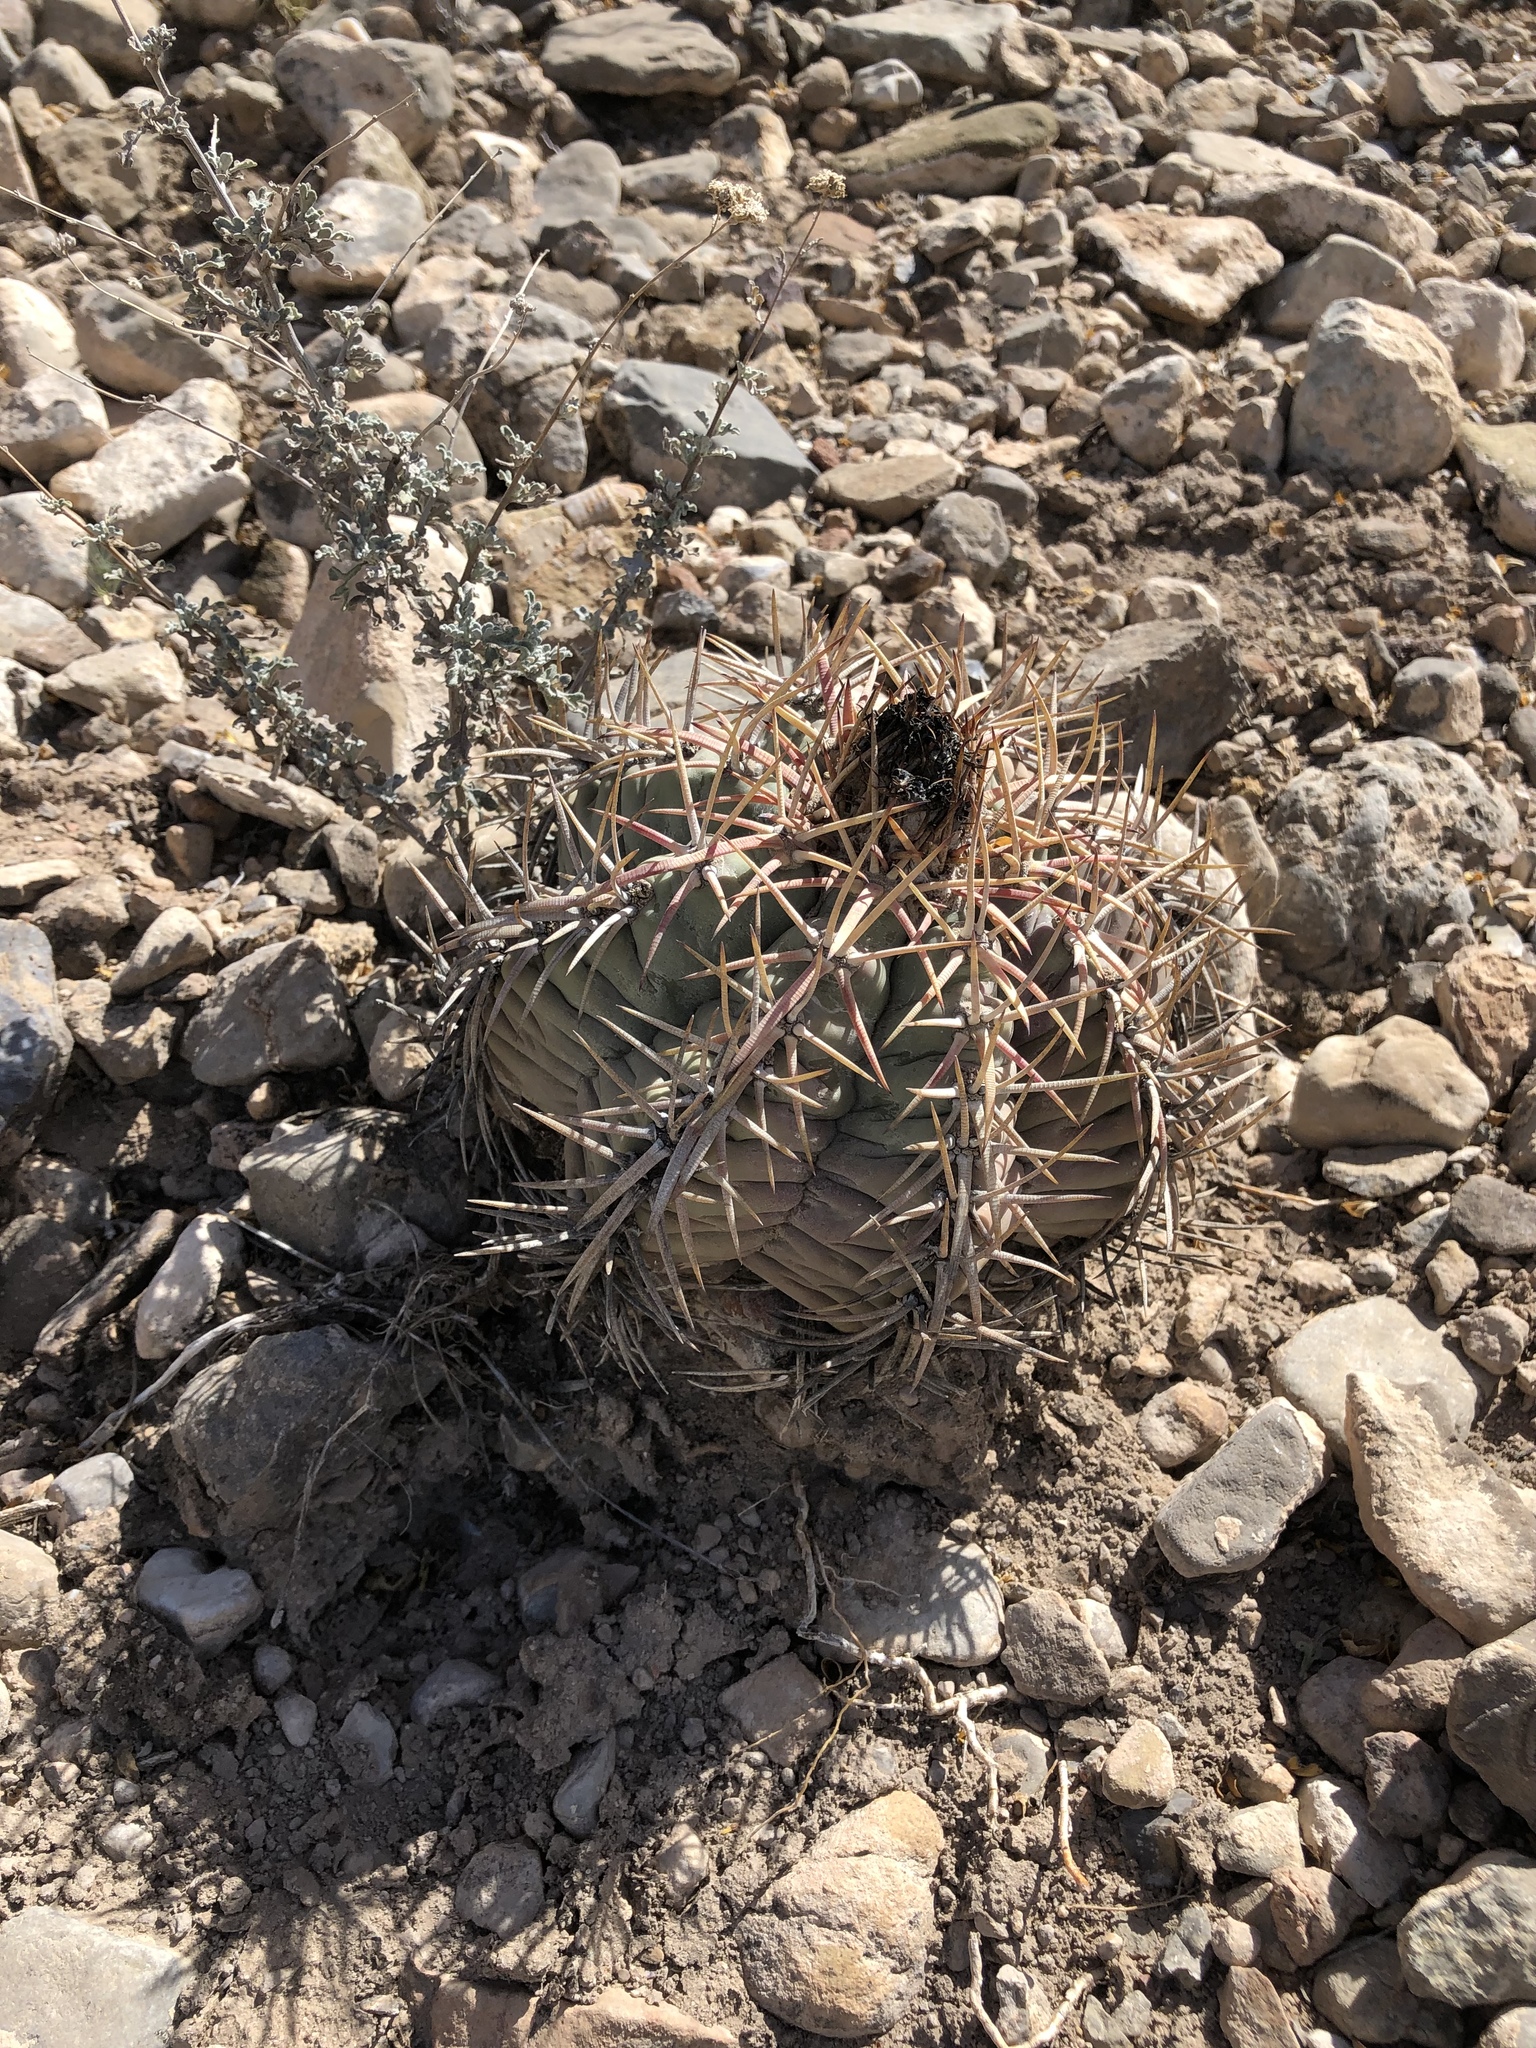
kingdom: Plantae
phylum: Tracheophyta
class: Magnoliopsida
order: Caryophyllales
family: Cactaceae
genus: Echinocactus
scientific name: Echinocactus horizonthalonius
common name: Devilshead
